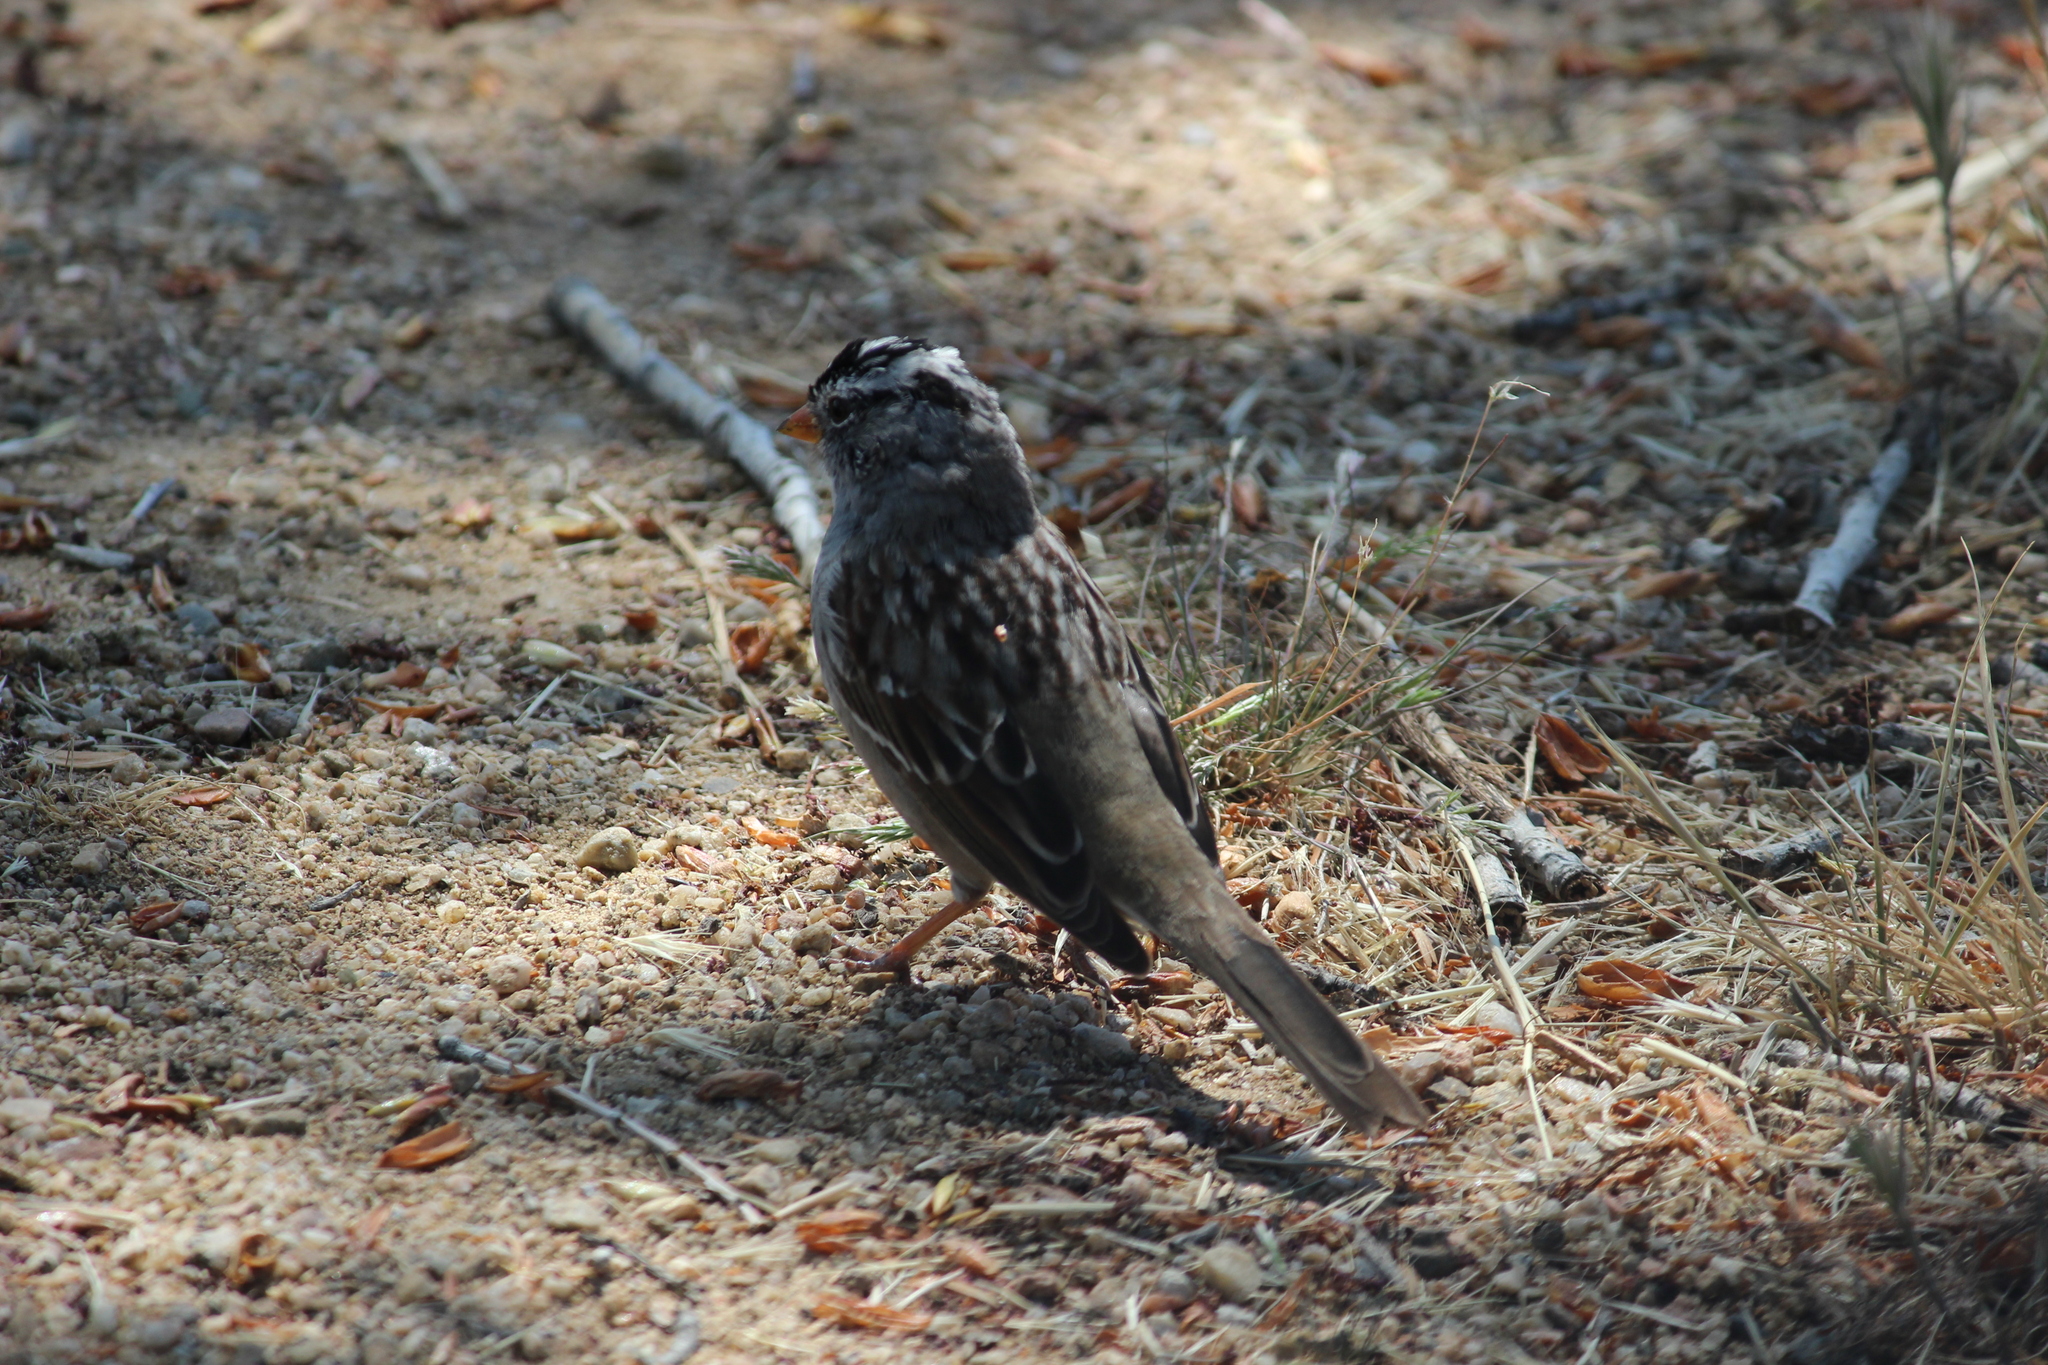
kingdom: Animalia
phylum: Chordata
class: Aves
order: Passeriformes
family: Passerellidae
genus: Zonotrichia
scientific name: Zonotrichia leucophrys
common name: White-crowned sparrow
